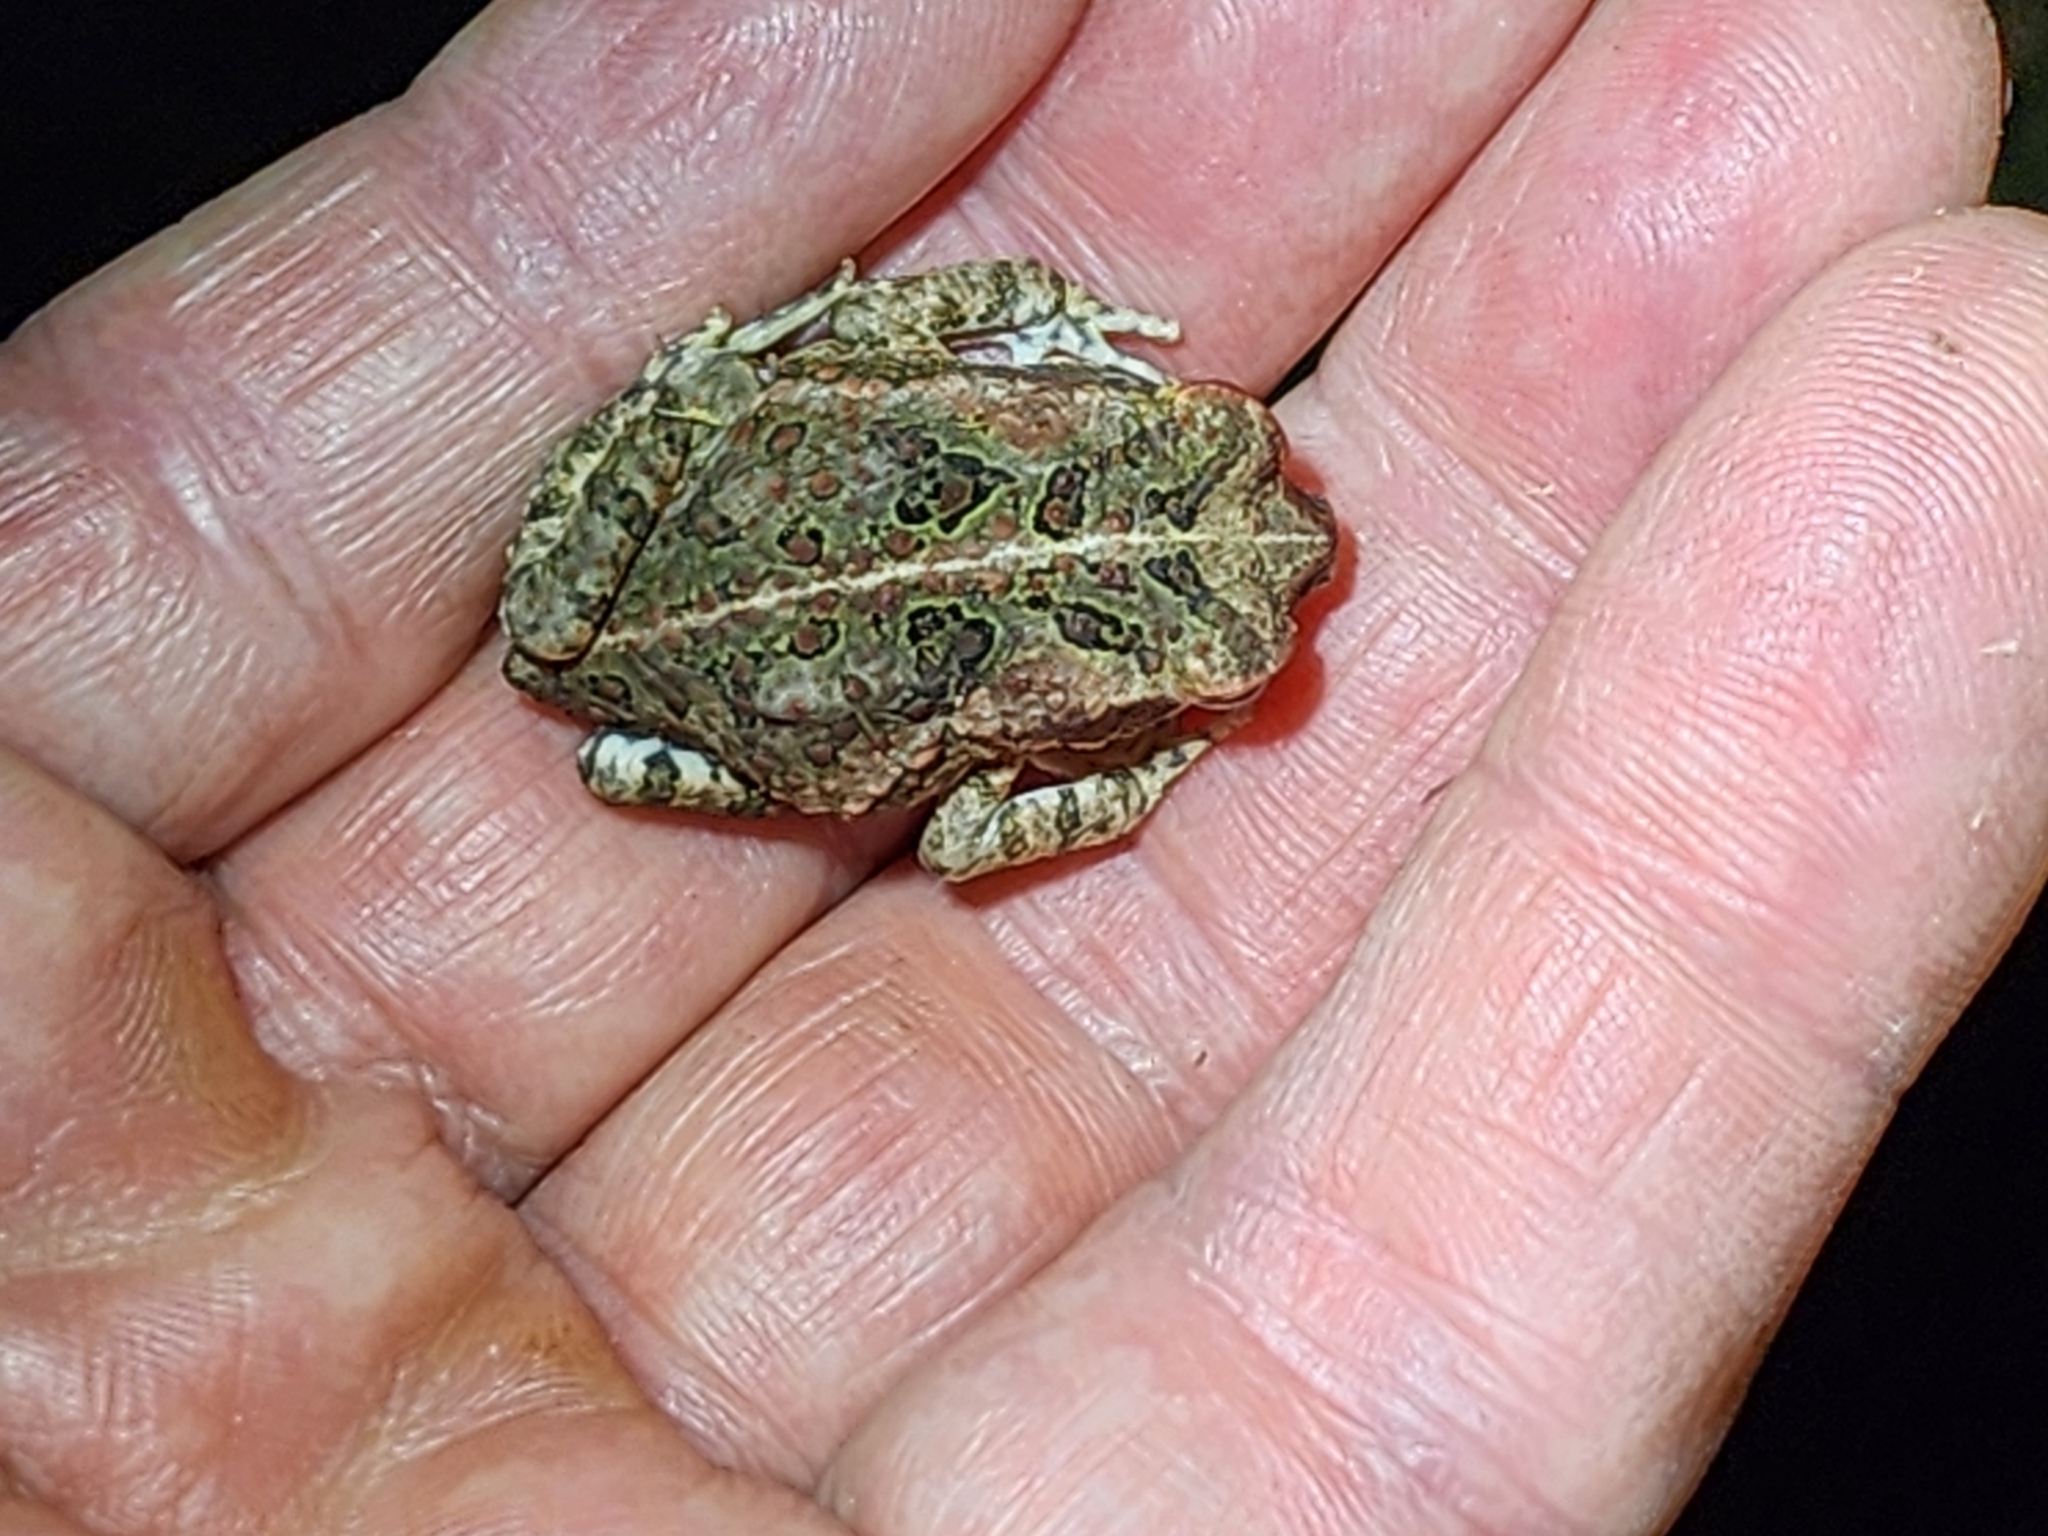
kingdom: Animalia
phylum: Chordata
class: Amphibia
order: Anura
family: Bufonidae
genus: Rhinella
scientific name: Rhinella marina
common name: Cane toad
